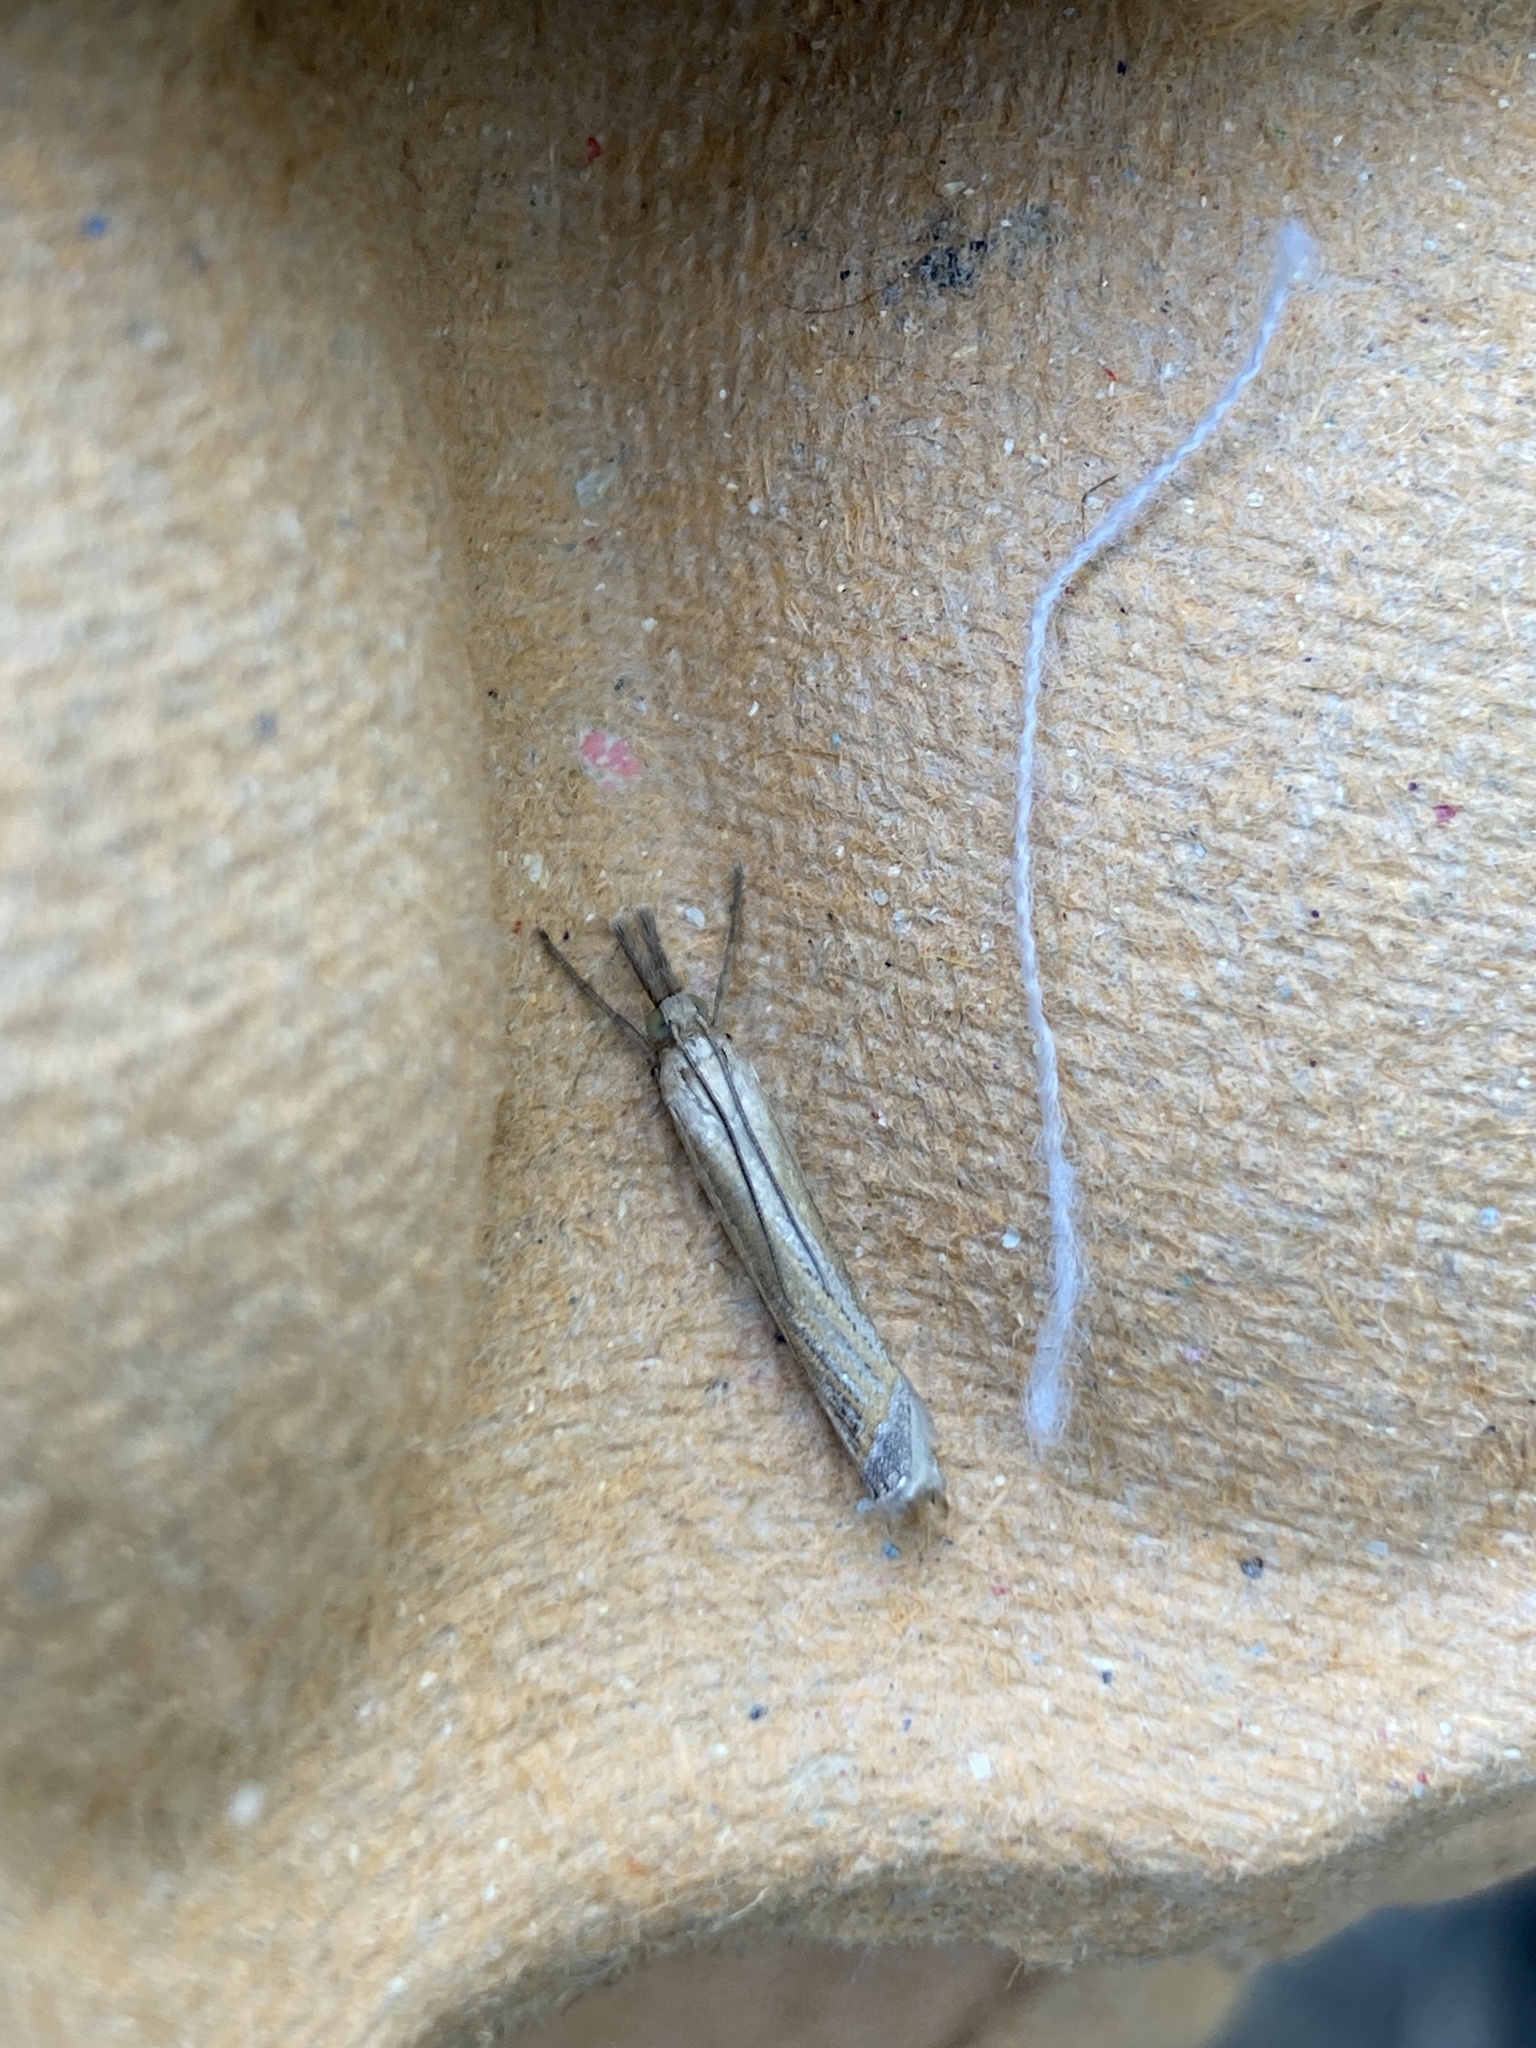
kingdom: Animalia
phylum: Arthropoda
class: Insecta
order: Lepidoptera
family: Crambidae
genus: Crambus
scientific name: Crambus pascuella
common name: Inlaid grass-veneer
